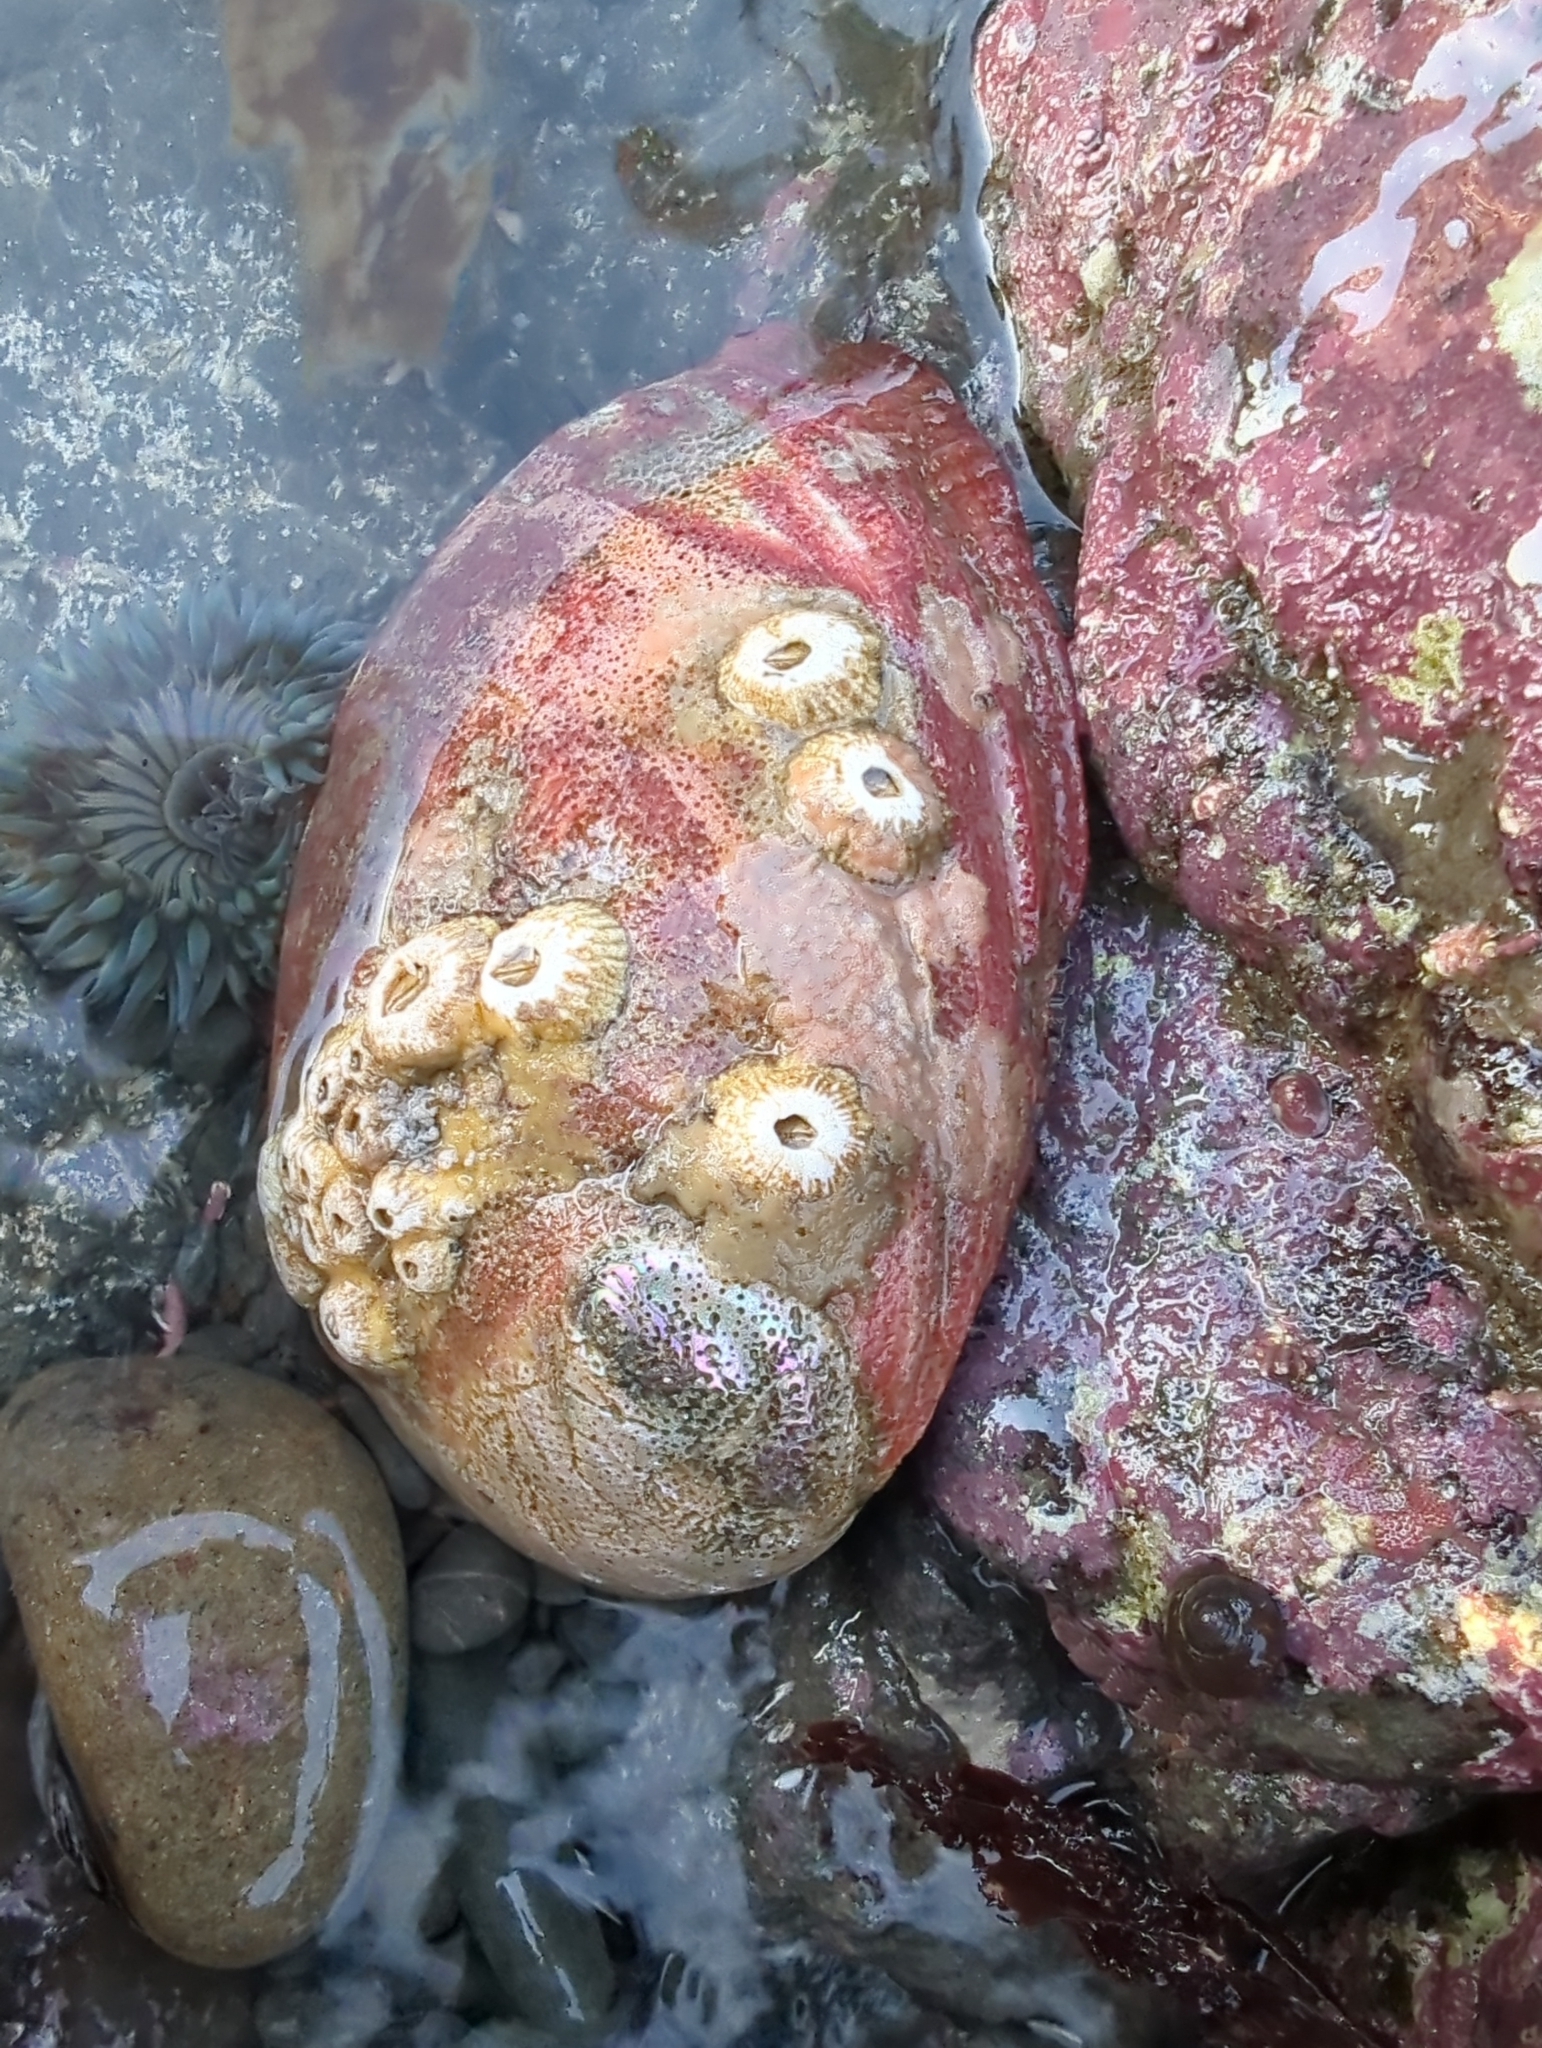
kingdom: Animalia
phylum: Mollusca
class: Gastropoda
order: Lepetellida
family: Haliotidae
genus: Haliotis
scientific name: Haliotis rufescens
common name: Red abalone
